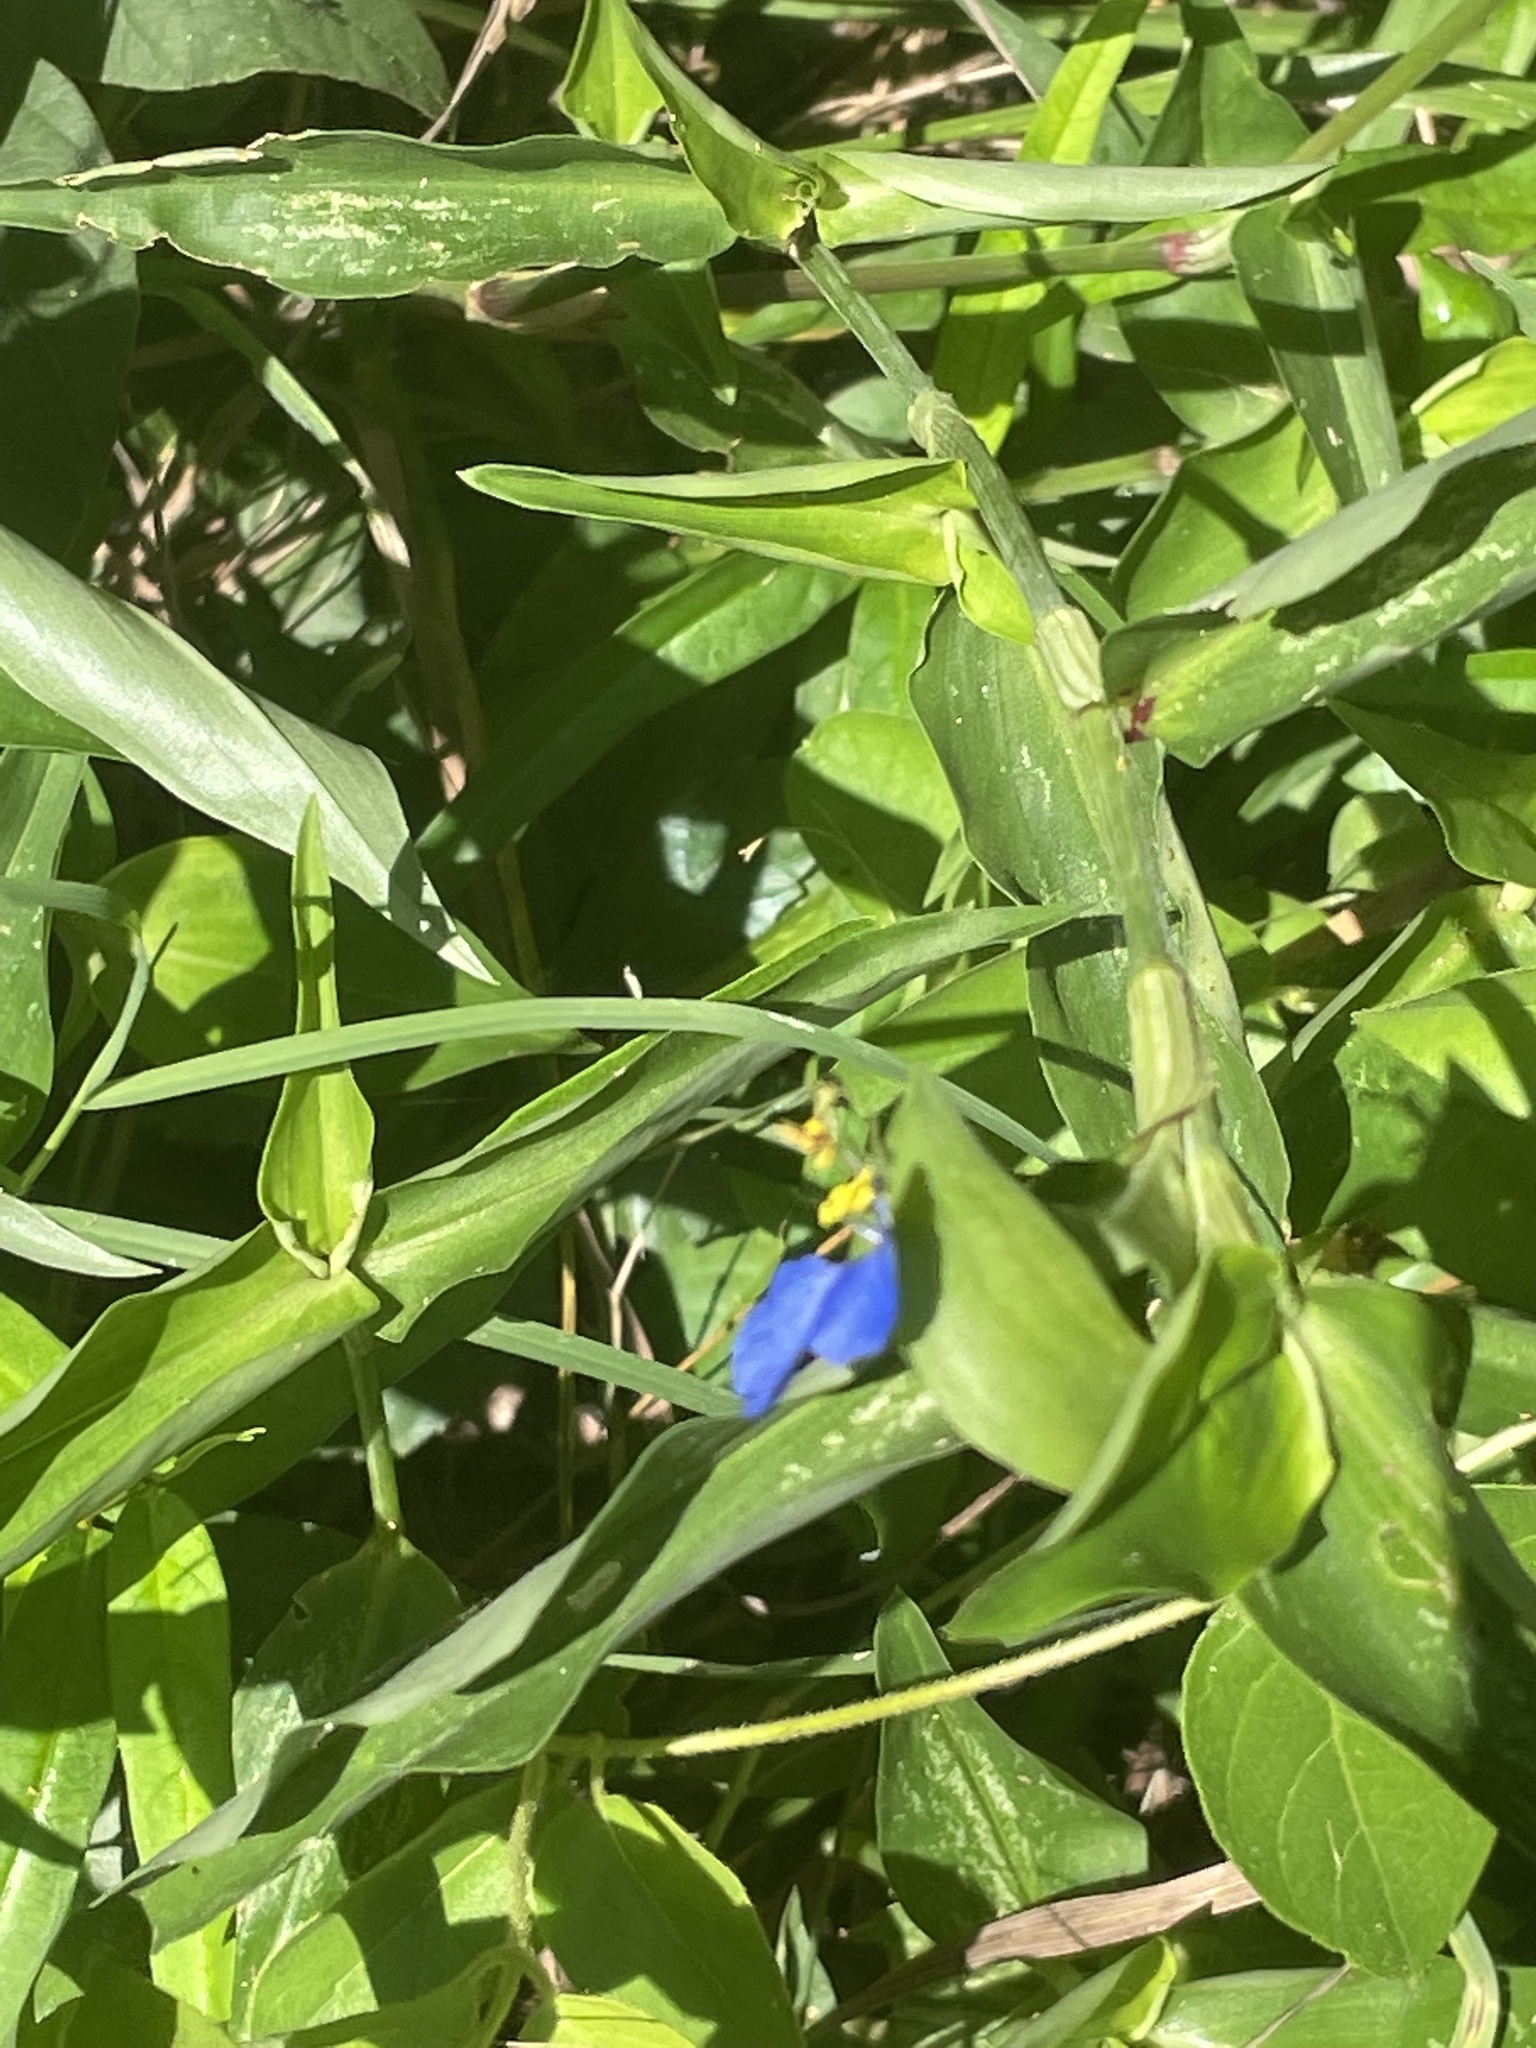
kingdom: Plantae
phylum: Tracheophyta
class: Liliopsida
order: Commelinales
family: Commelinaceae
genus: Commelina
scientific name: Commelina communis
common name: Asiatic dayflower
